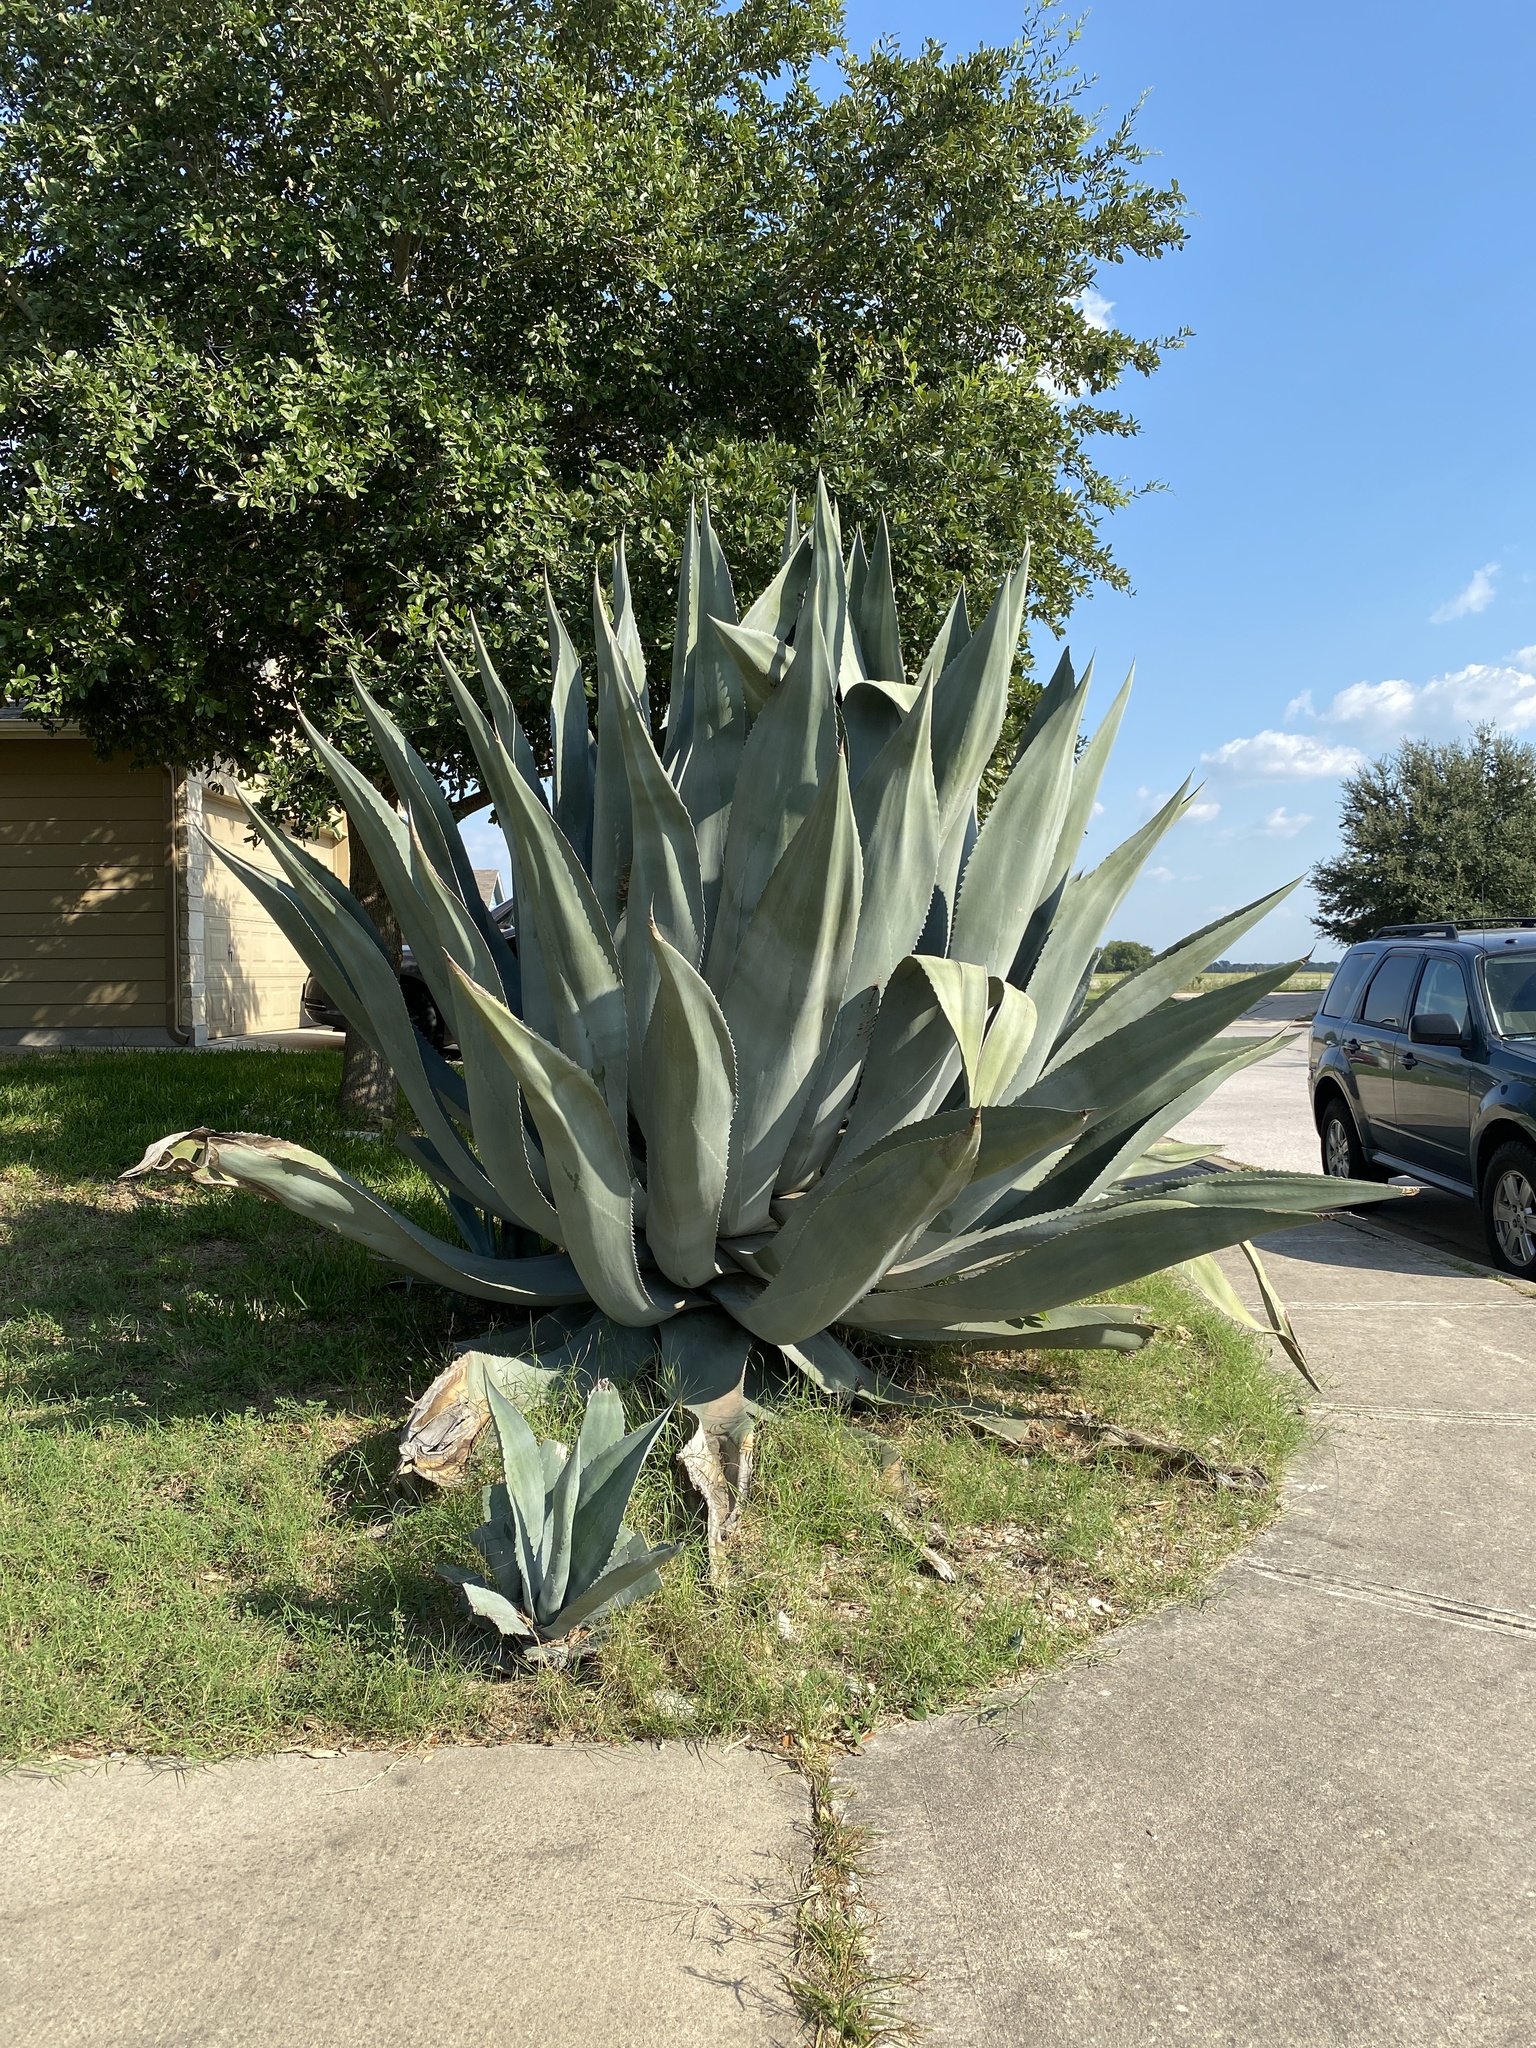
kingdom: Plantae
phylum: Tracheophyta
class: Liliopsida
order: Asparagales
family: Asparagaceae
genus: Agave
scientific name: Agave americana
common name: Centuryplant
